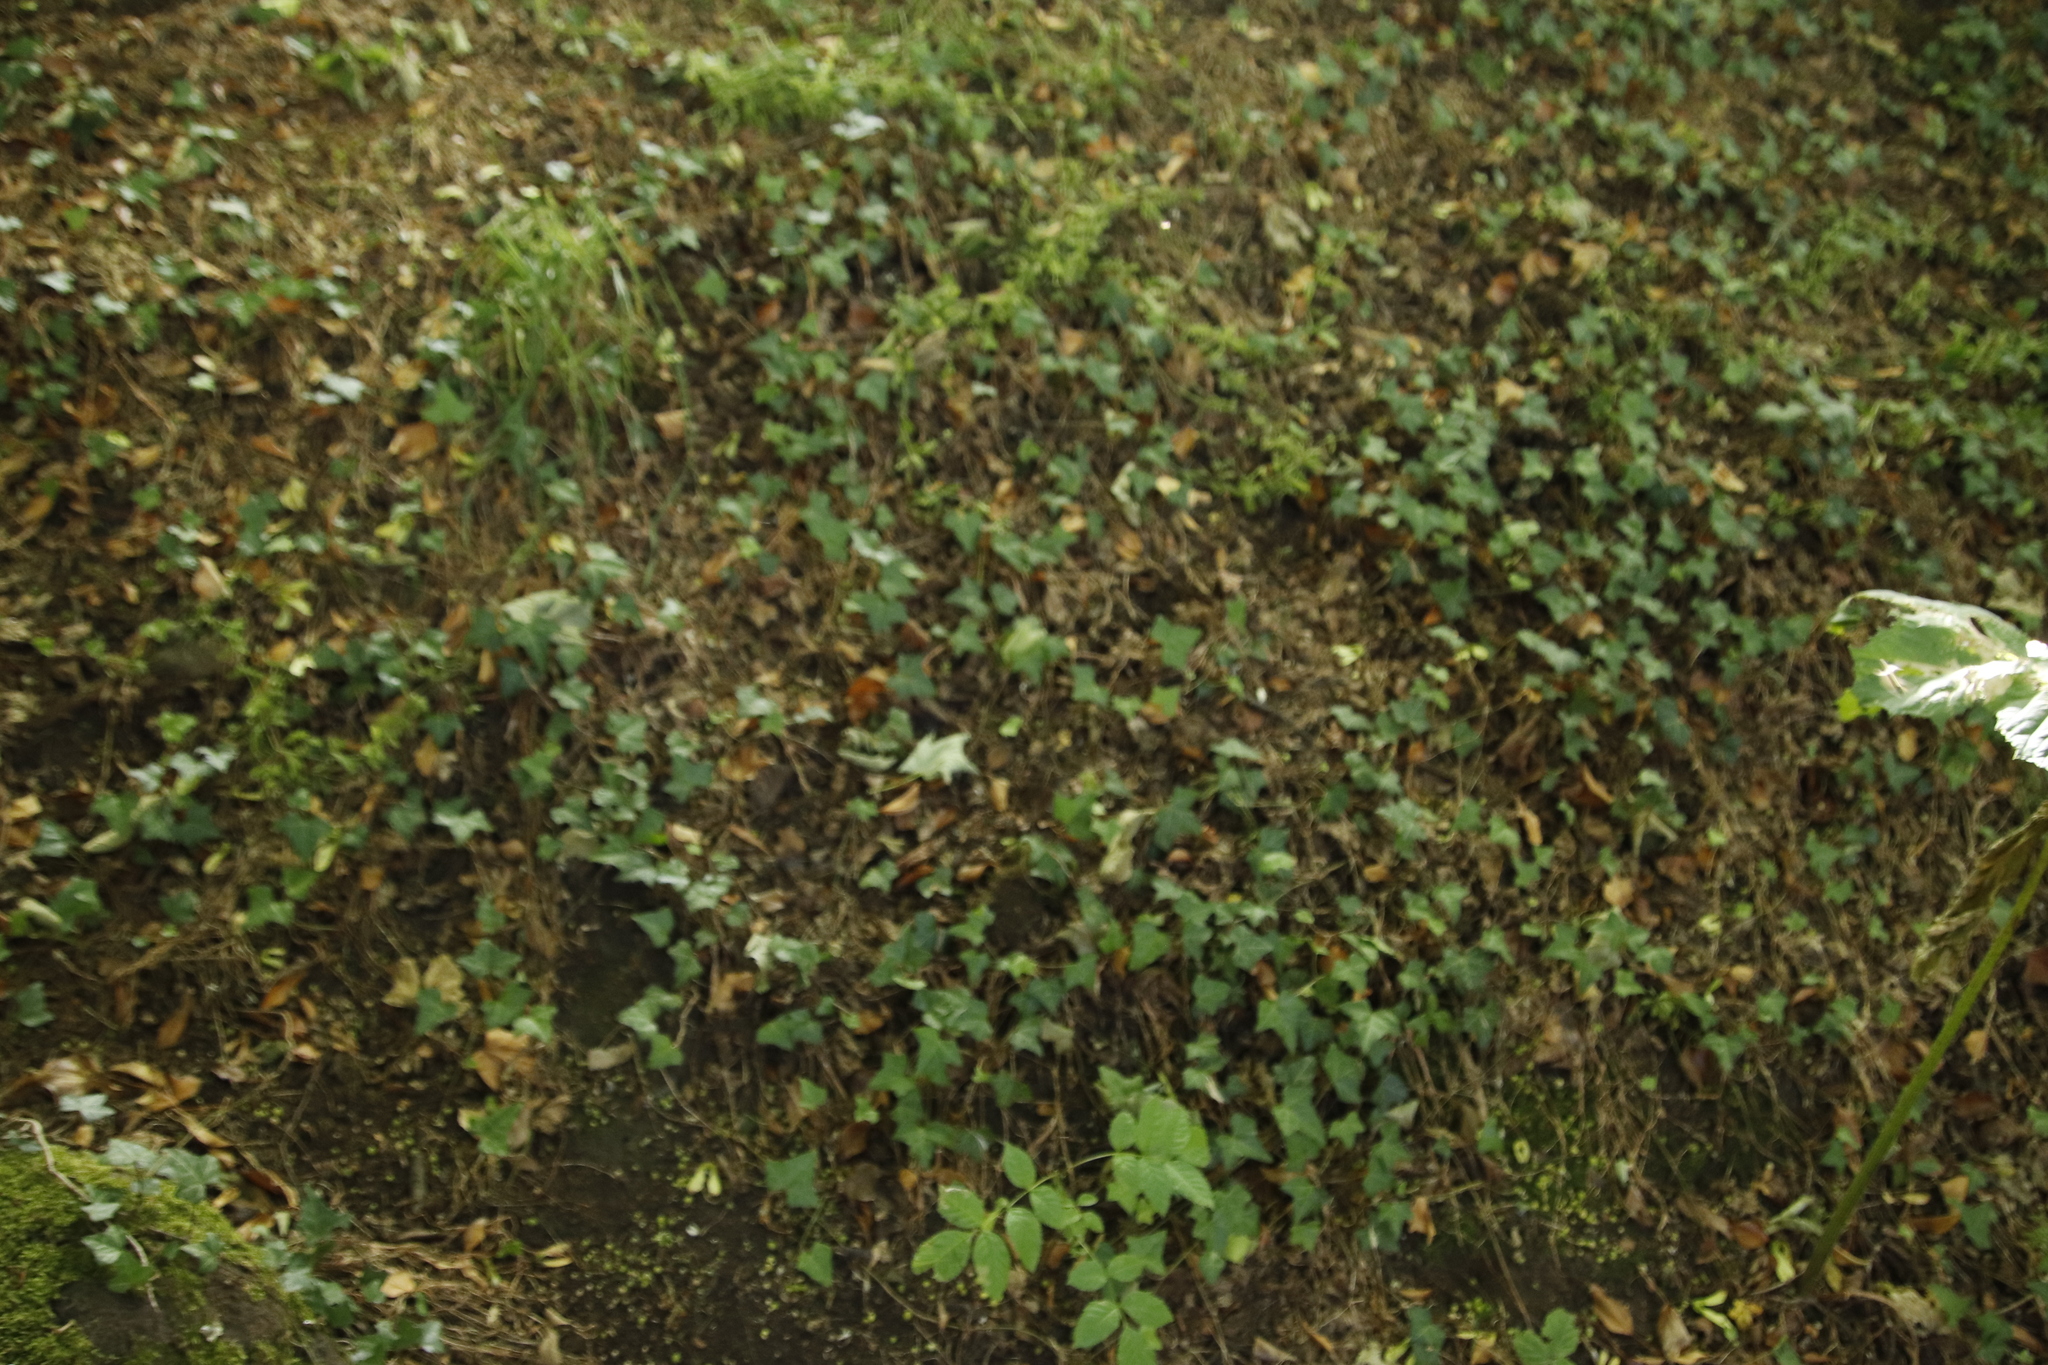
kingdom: Plantae
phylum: Tracheophyta
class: Magnoliopsida
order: Apiales
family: Araliaceae
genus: Hedera
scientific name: Hedera helix
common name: Ivy
